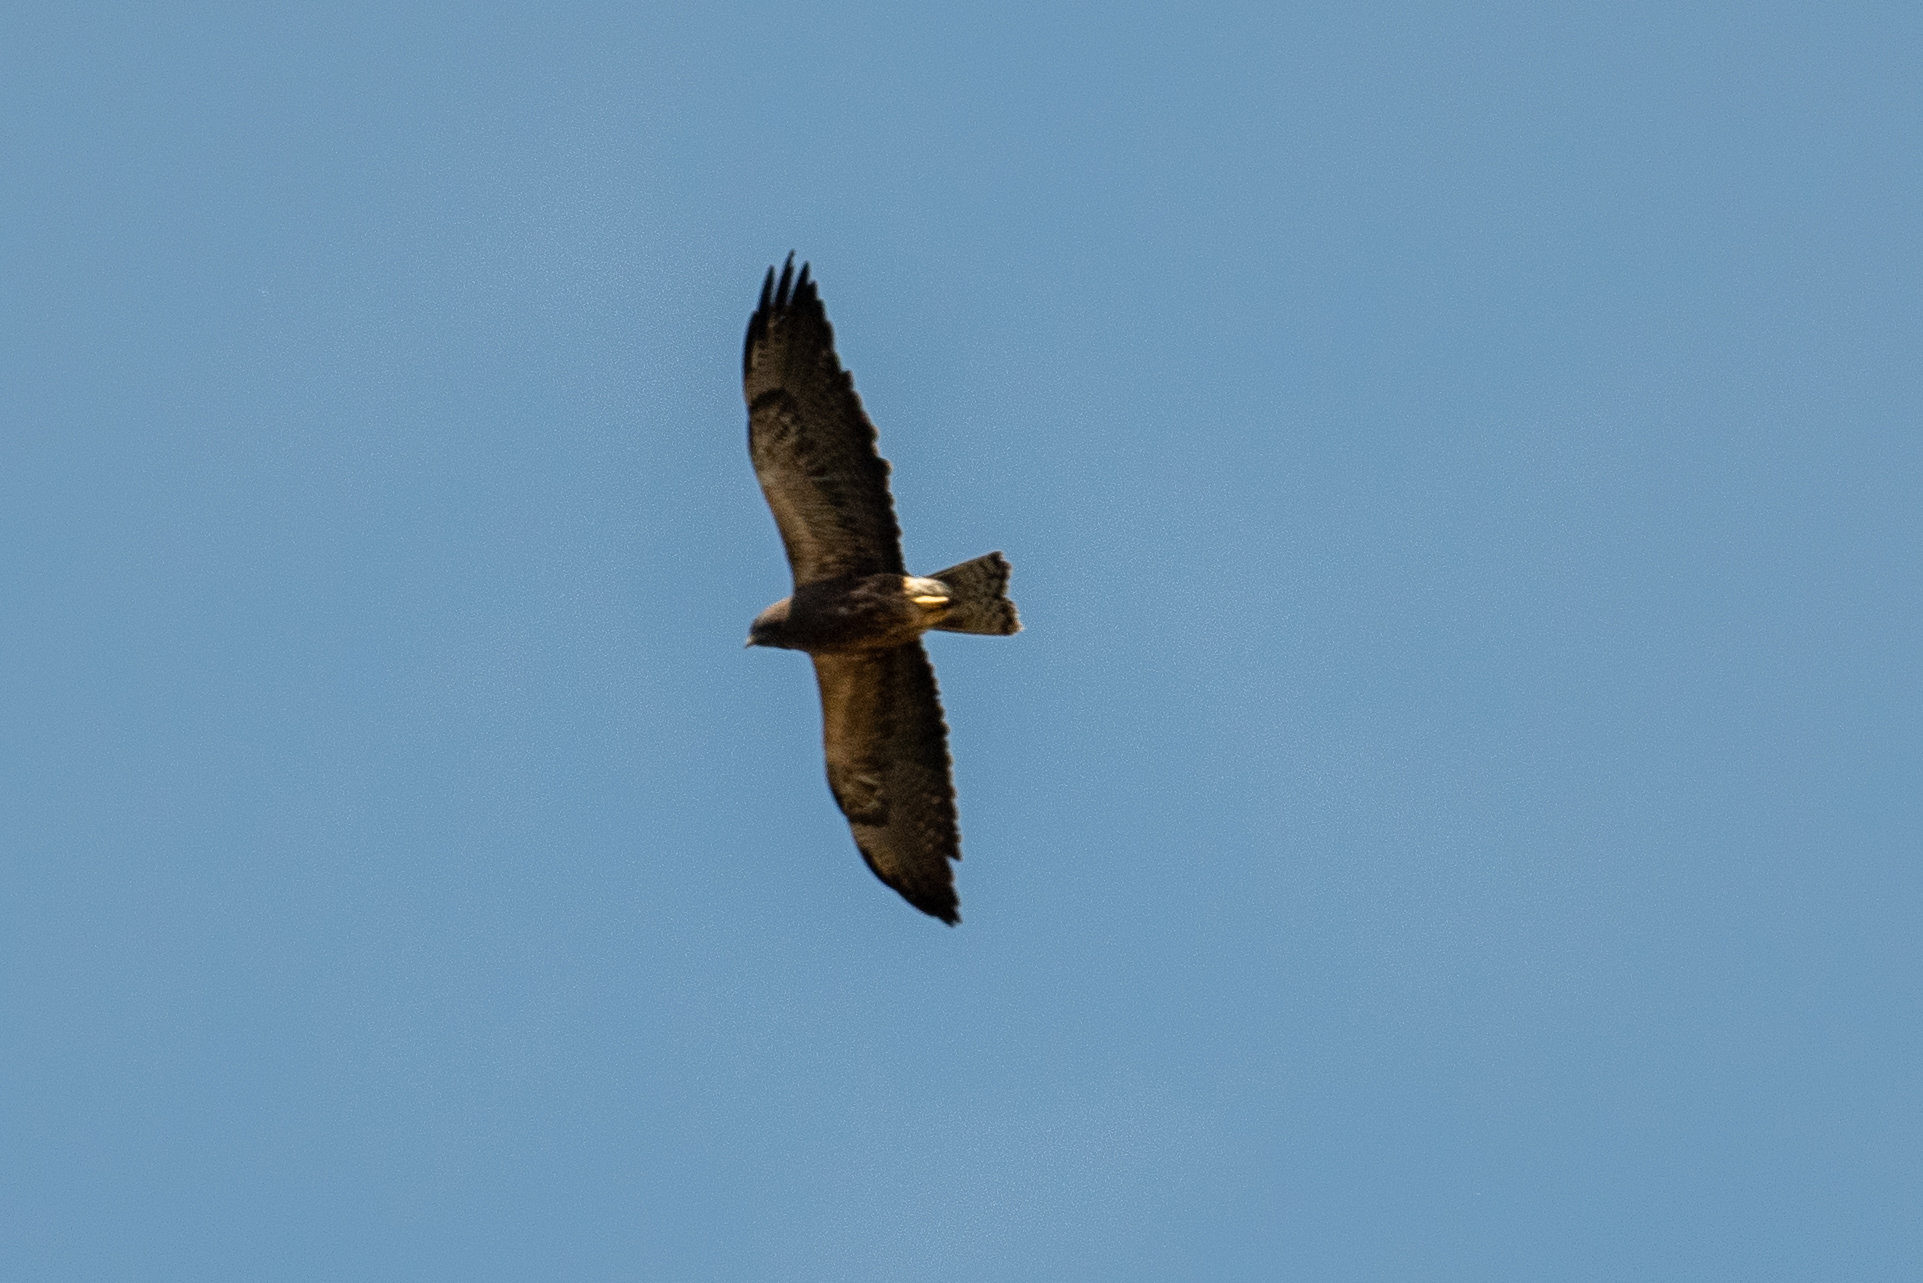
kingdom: Animalia
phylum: Chordata
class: Aves
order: Accipitriformes
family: Accipitridae
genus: Buteo
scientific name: Buteo swainsoni
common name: Swainson's hawk
